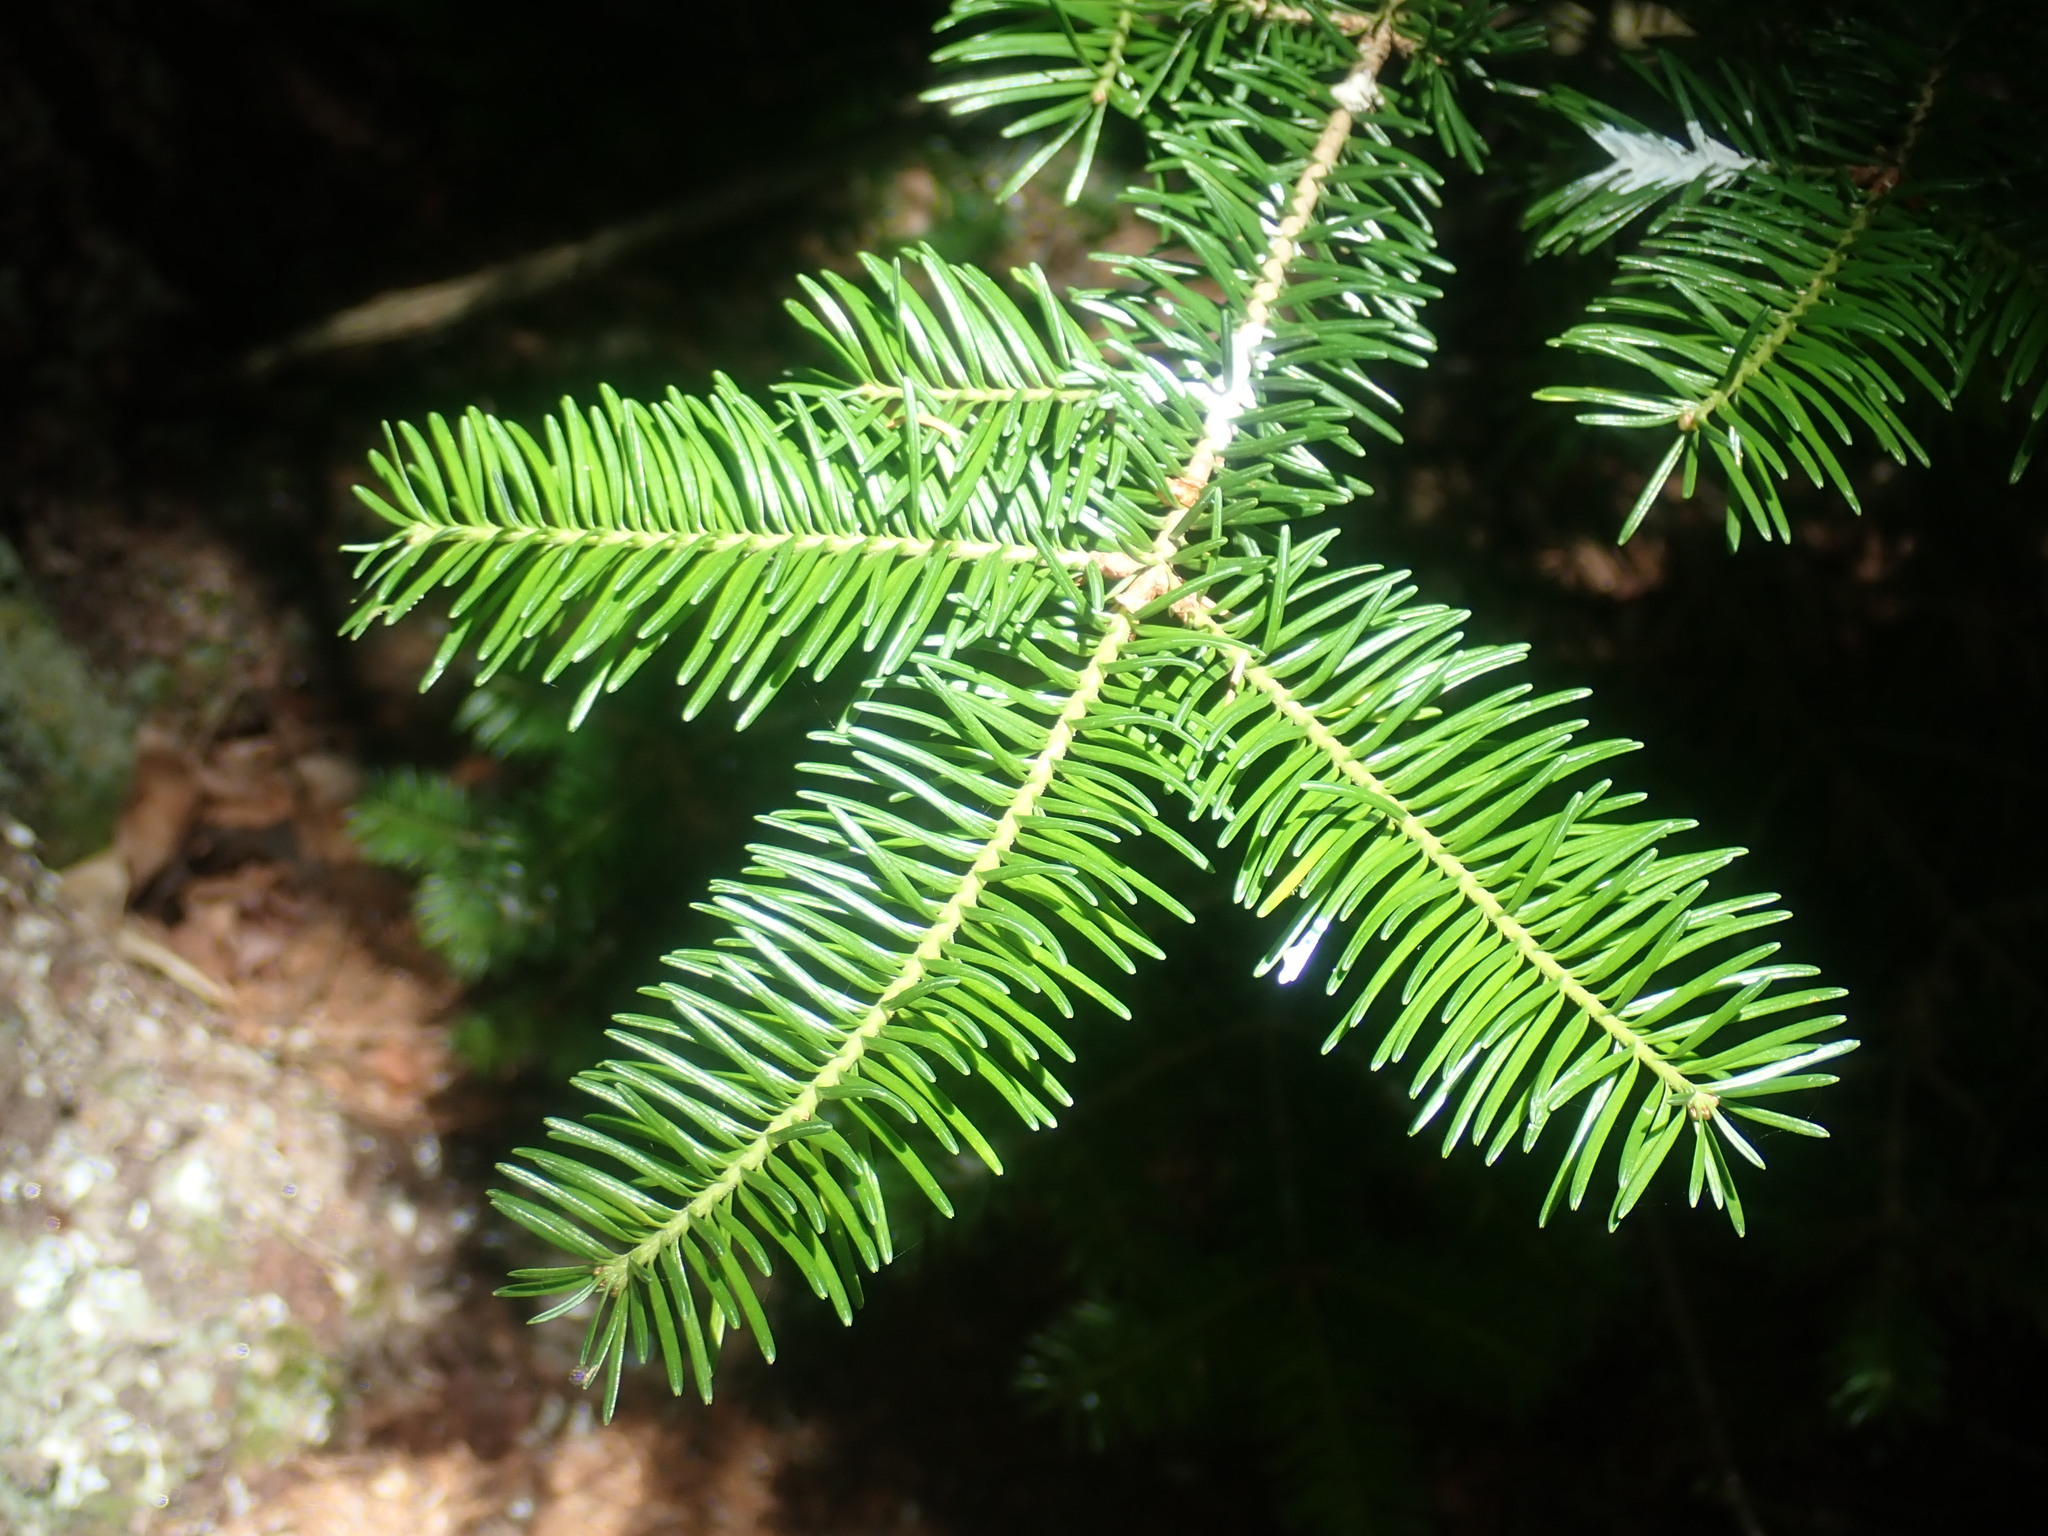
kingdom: Plantae
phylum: Tracheophyta
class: Pinopsida
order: Pinales
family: Pinaceae
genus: Abies
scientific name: Abies balsamea
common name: Balsam fir
